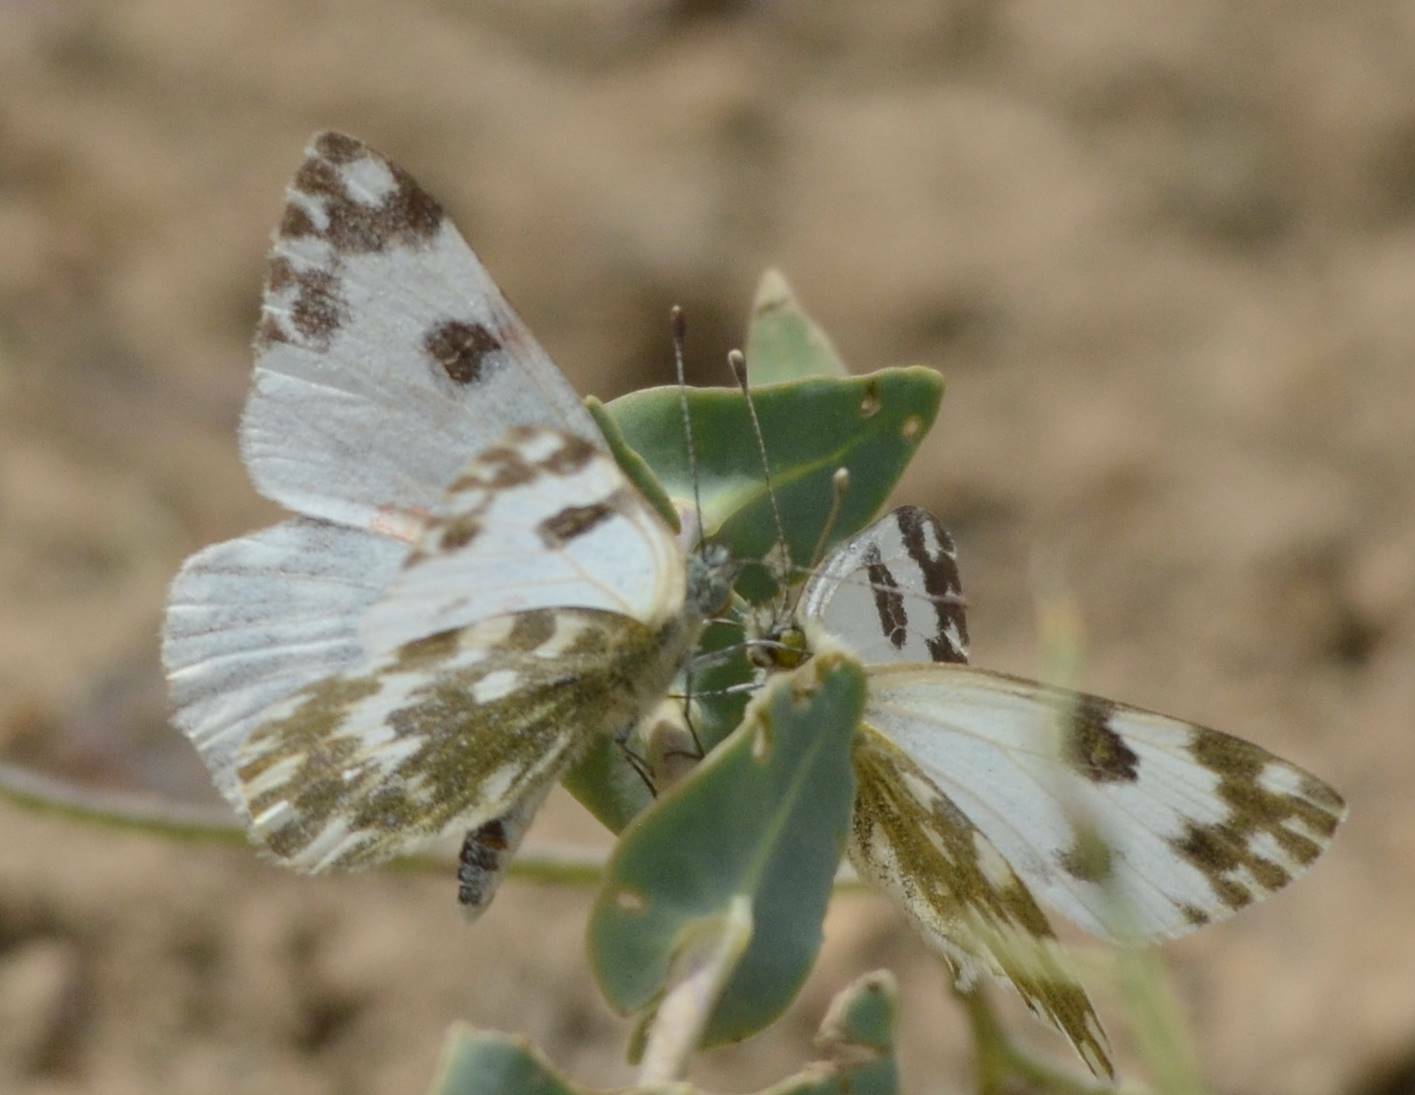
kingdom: Animalia
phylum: Arthropoda
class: Insecta
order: Lepidoptera
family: Pieridae
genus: Pontia
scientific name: Pontia daplidice
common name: Bath white
